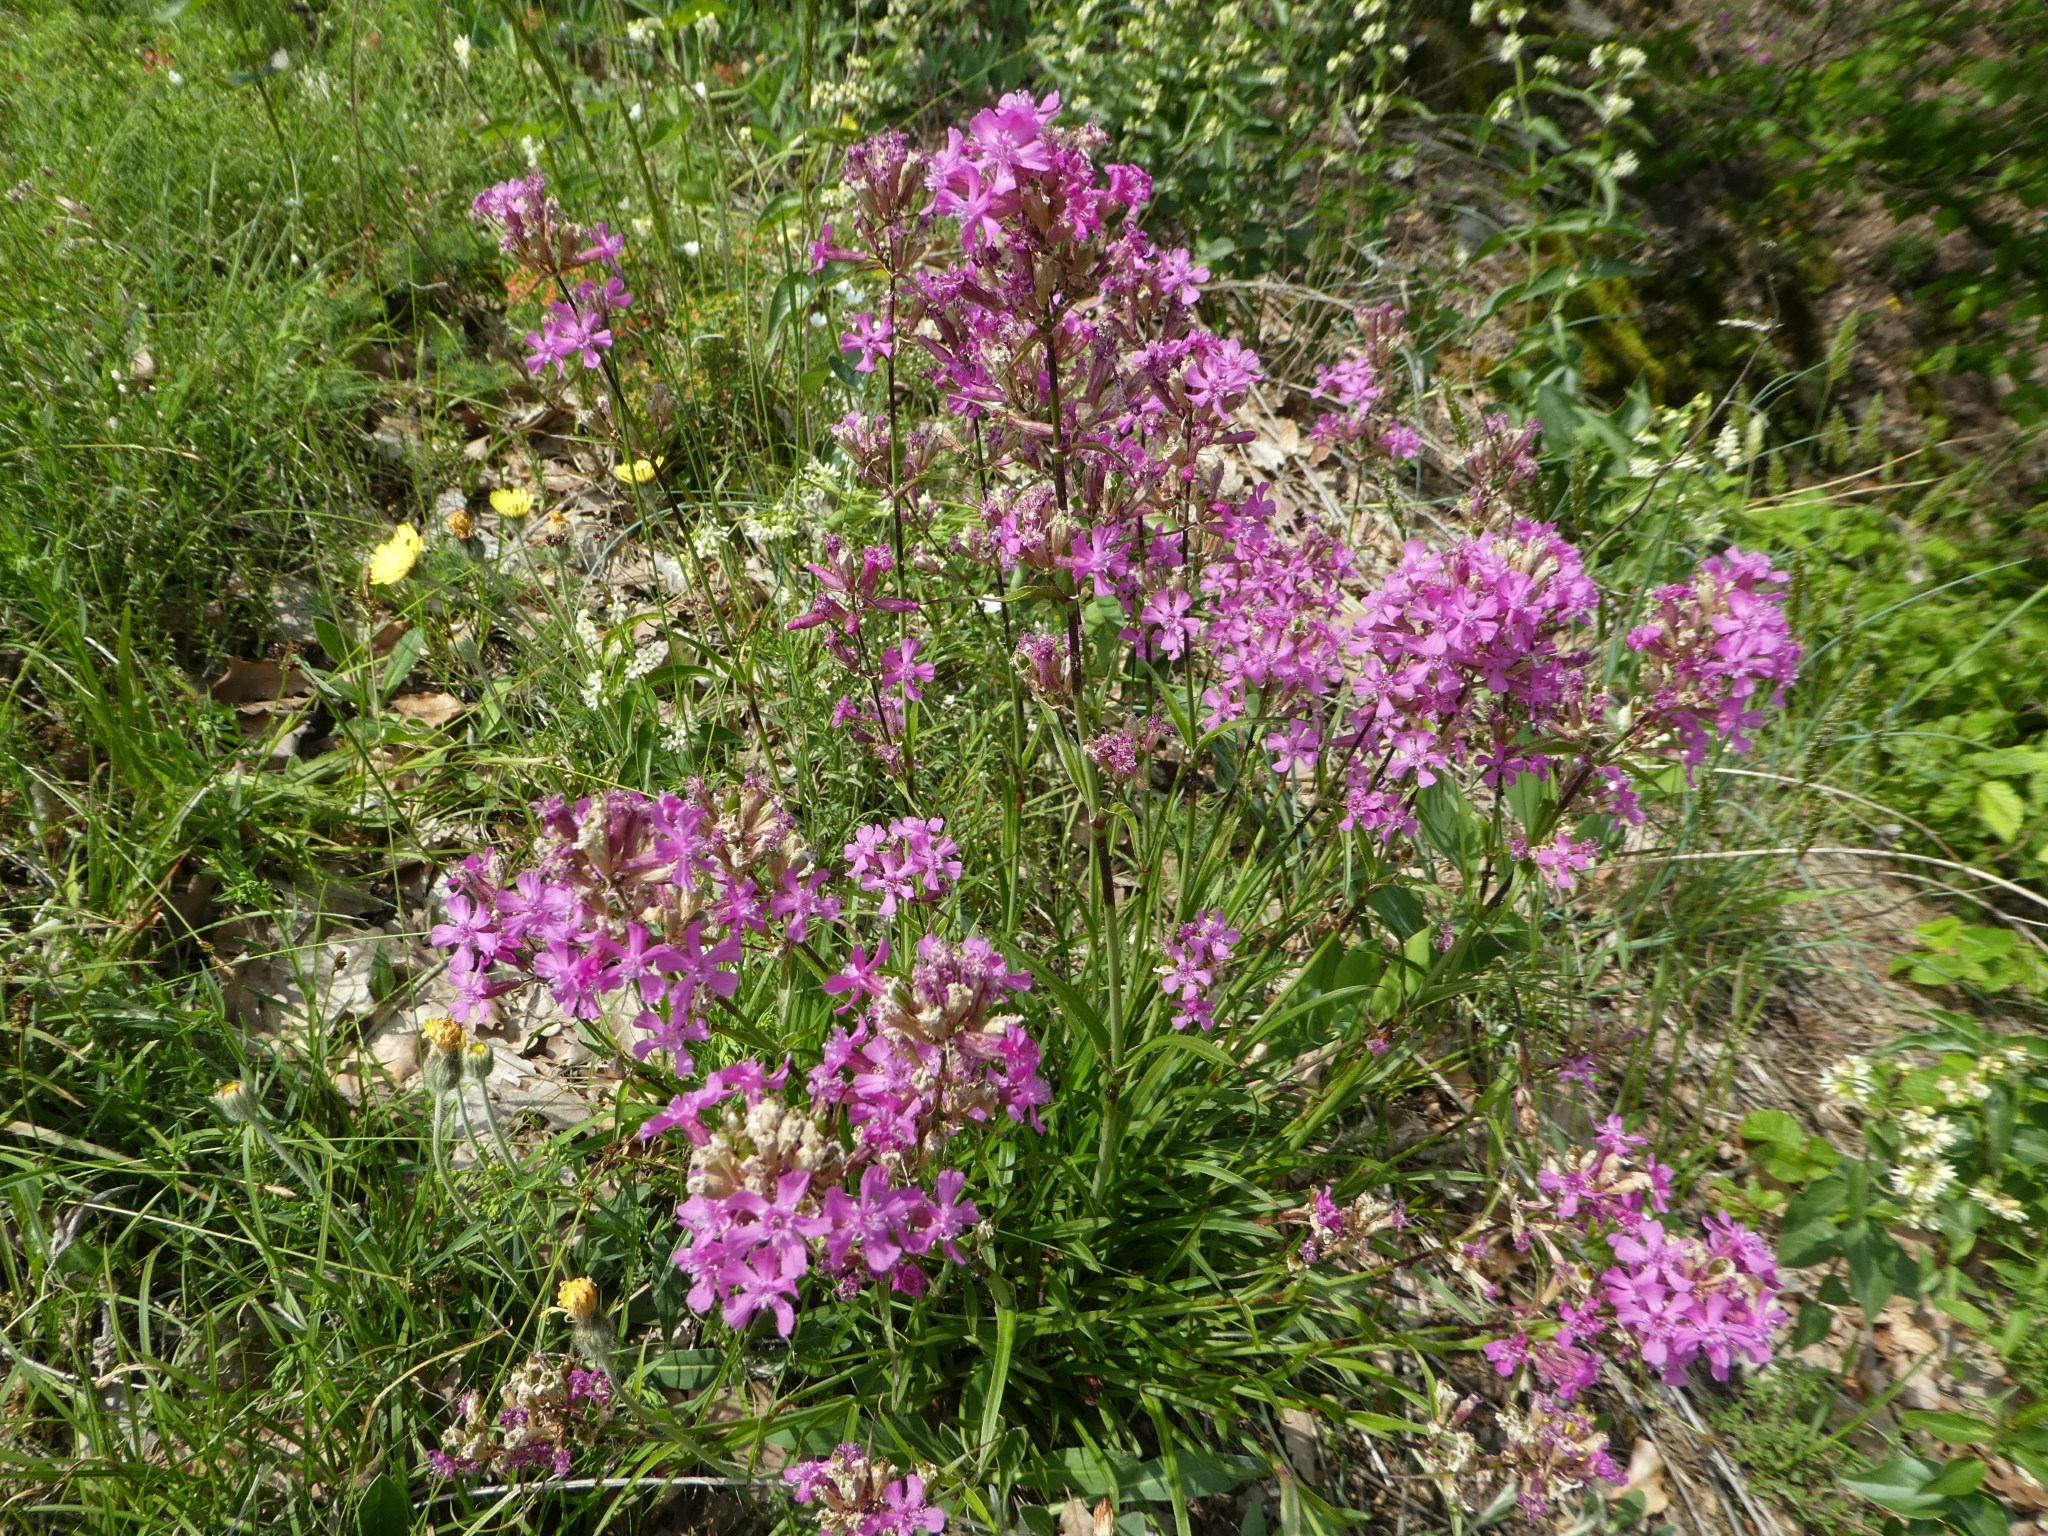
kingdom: Plantae
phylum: Tracheophyta
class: Magnoliopsida
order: Caryophyllales
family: Caryophyllaceae
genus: Viscaria
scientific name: Viscaria vulgaris
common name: Clammy campion
